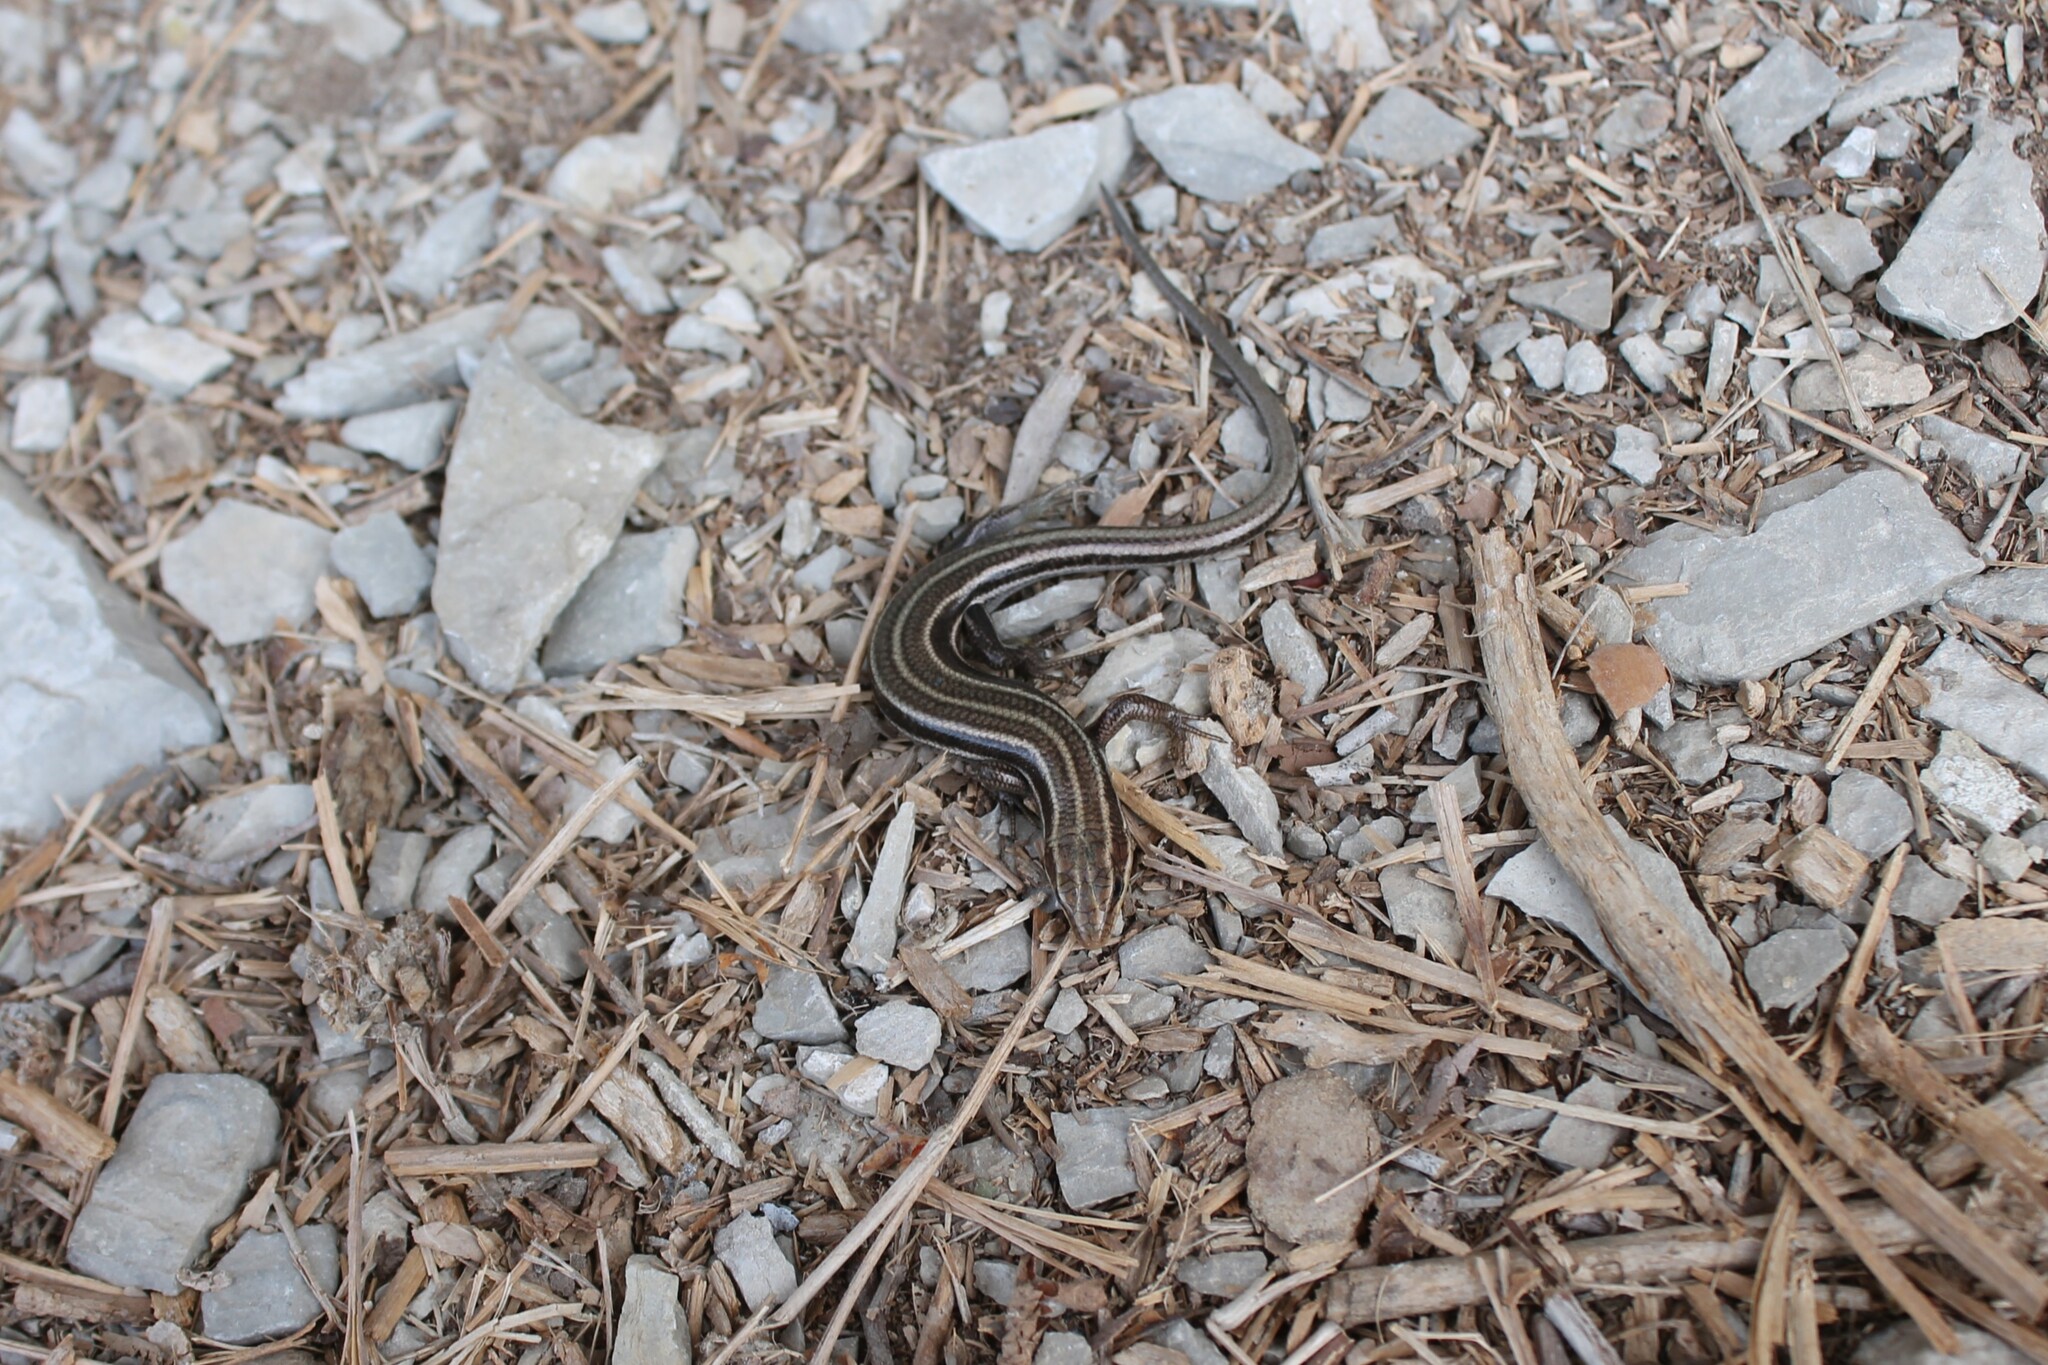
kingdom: Animalia
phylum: Chordata
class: Squamata
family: Scincidae
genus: Plestiodon
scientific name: Plestiodon fasciatus
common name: Five-lined skink
